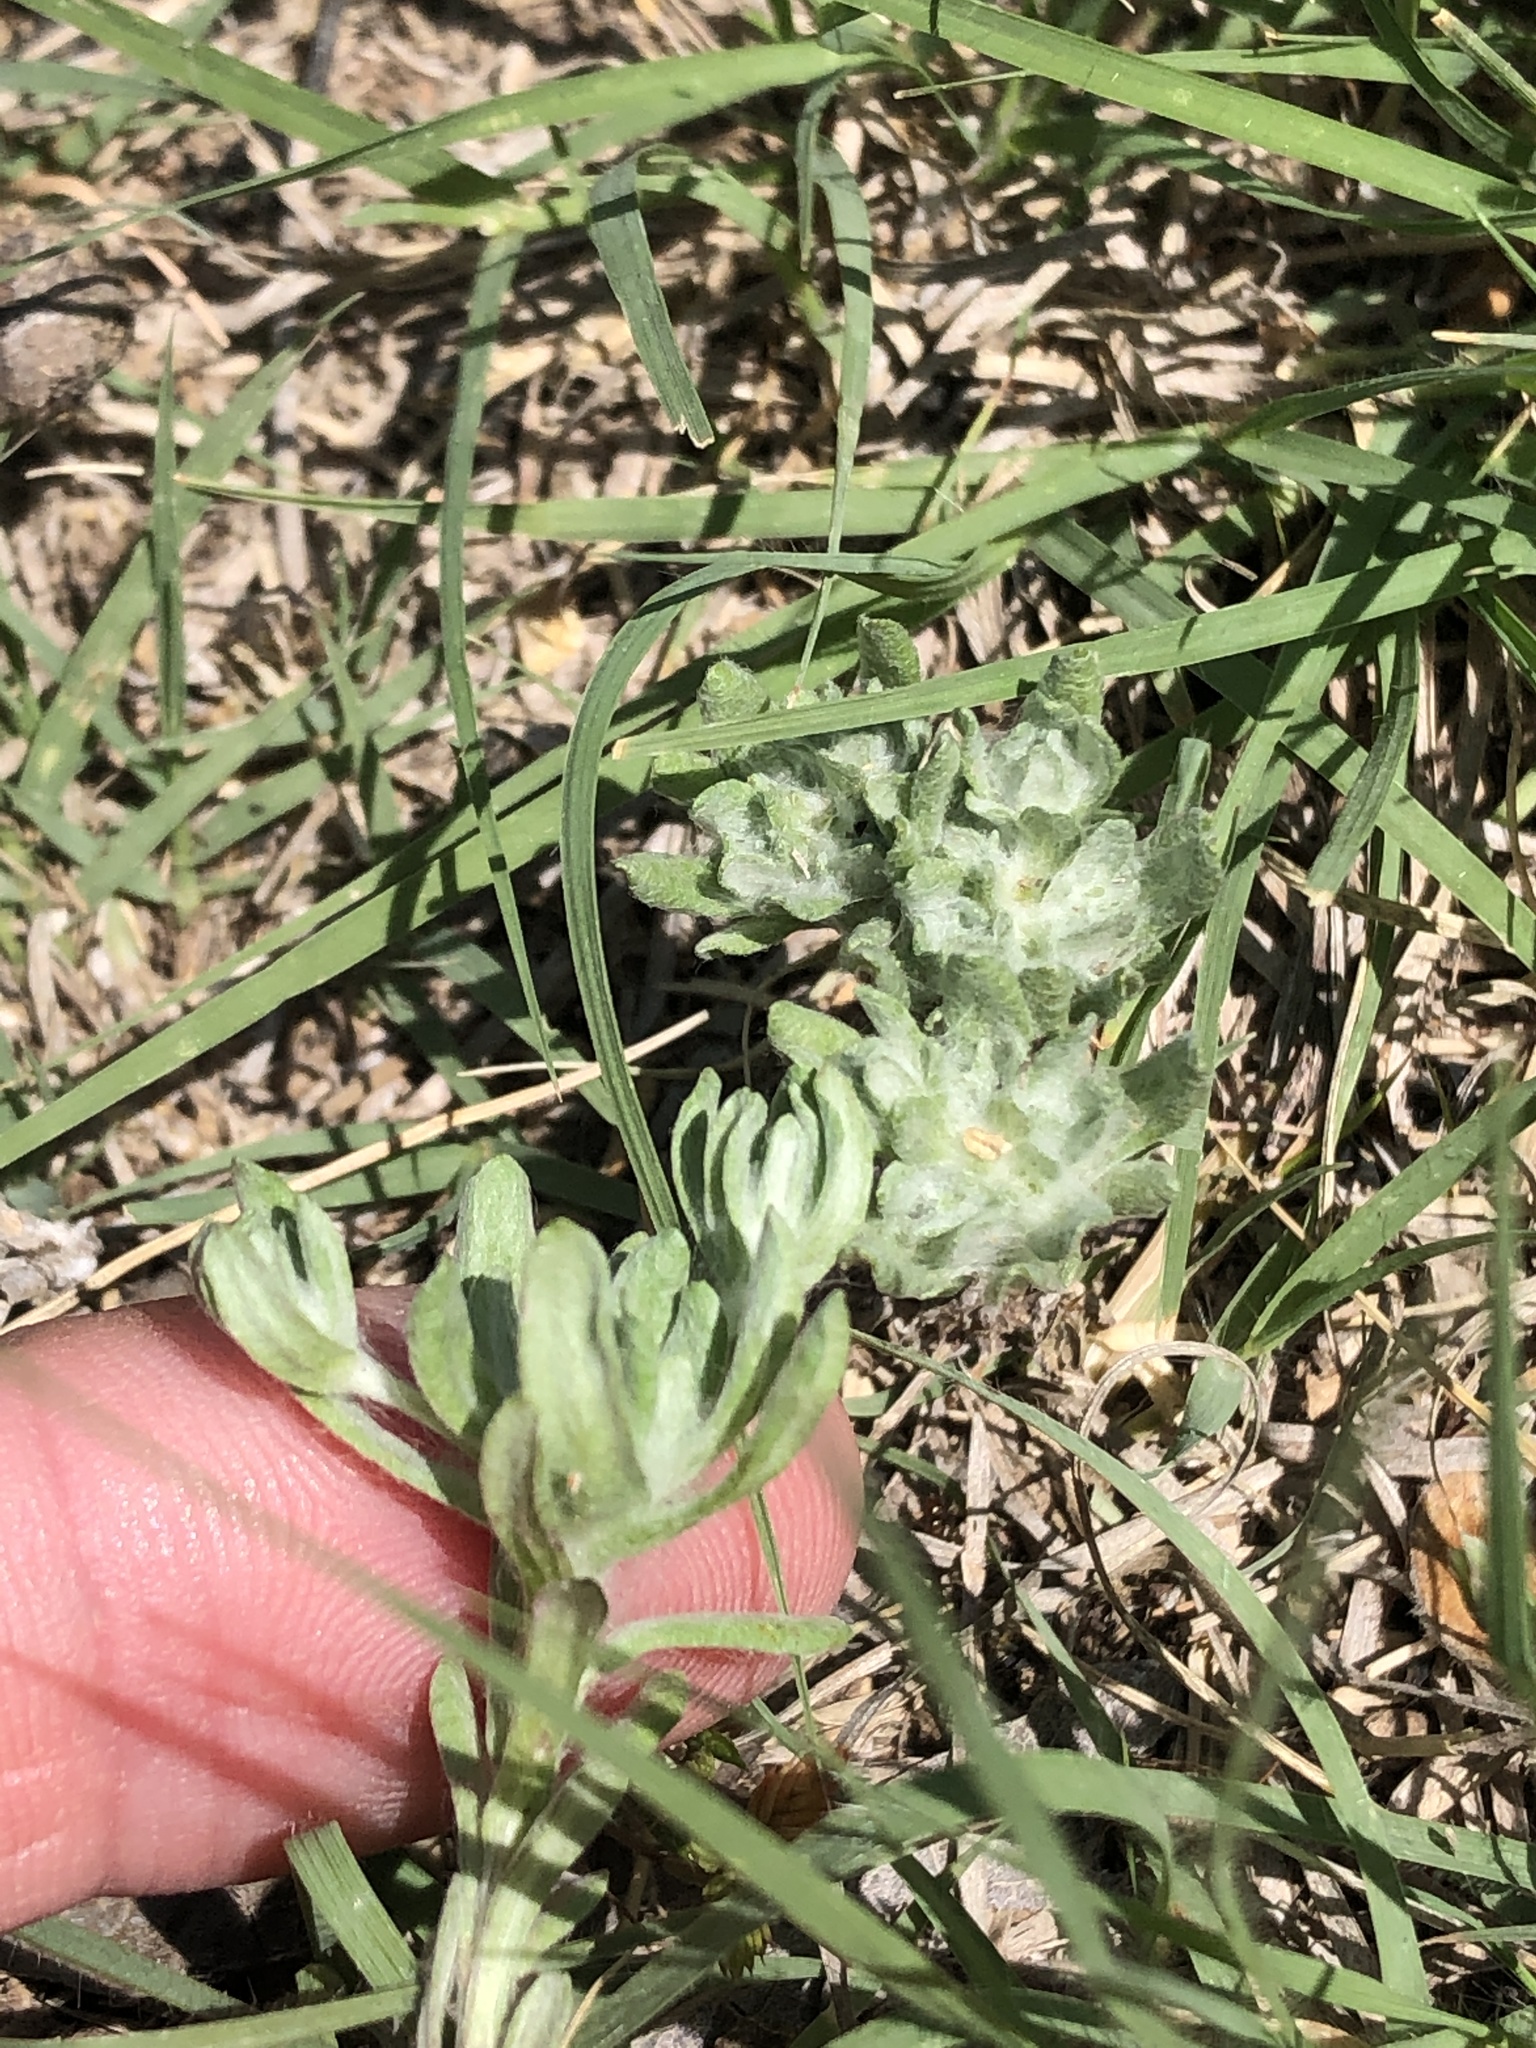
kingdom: Plantae
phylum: Tracheophyta
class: Magnoliopsida
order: Asterales
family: Asteraceae
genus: Diaperia
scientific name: Diaperia prolifera
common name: Big-head rabbit-tobacco
